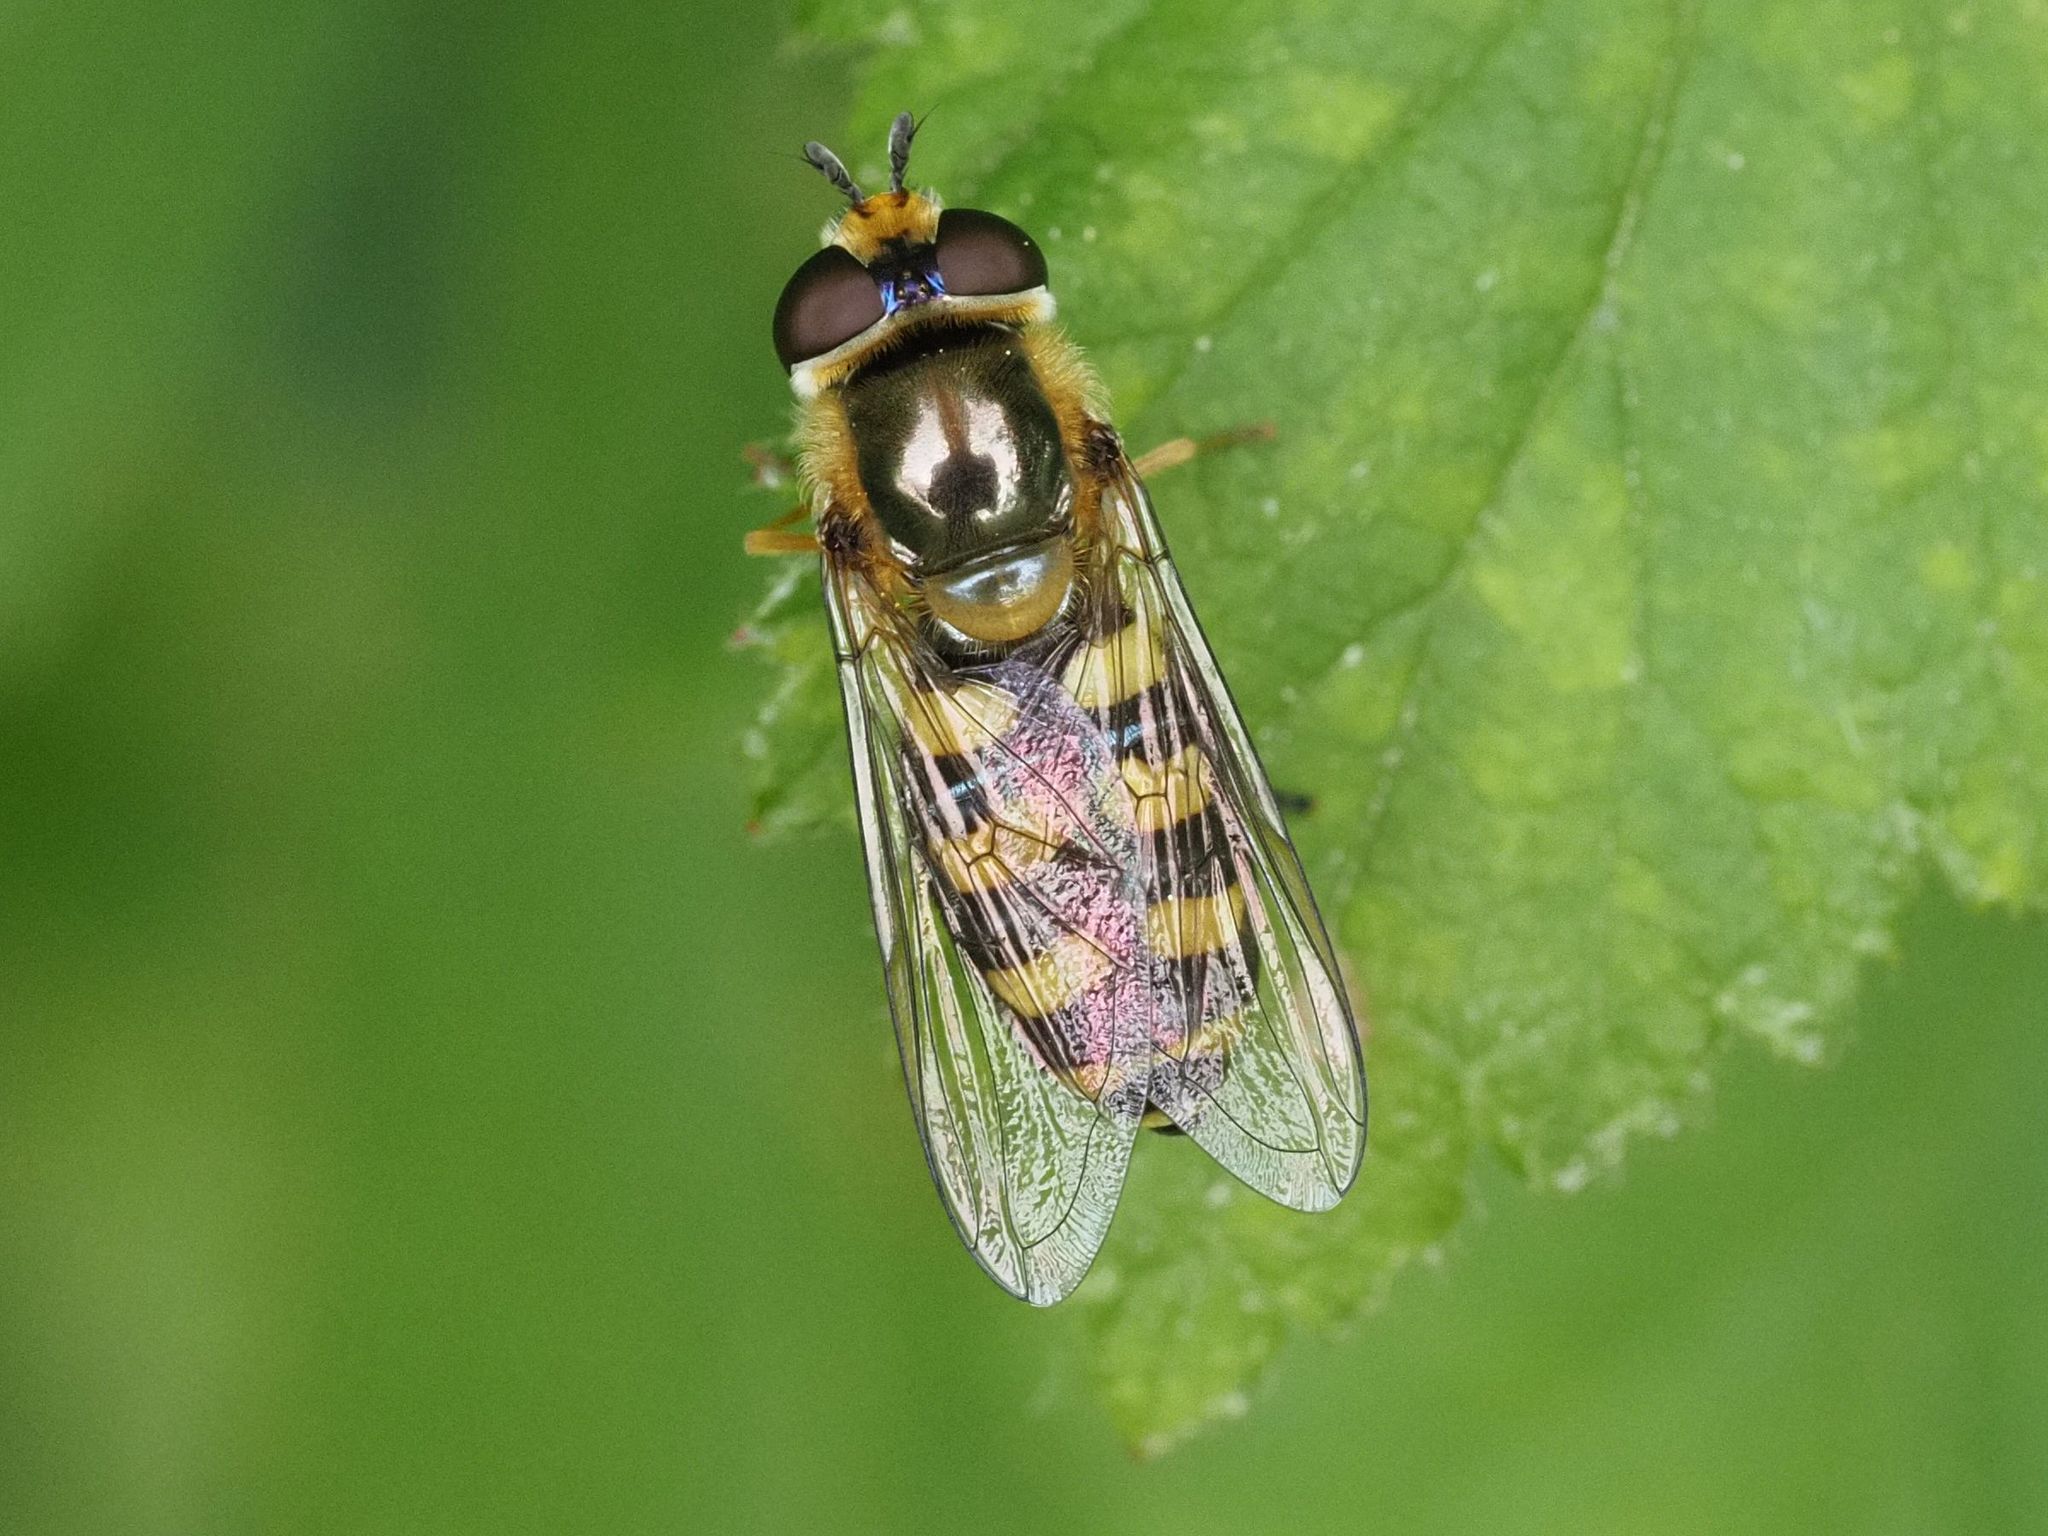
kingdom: Animalia
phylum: Arthropoda
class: Insecta
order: Diptera
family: Syrphidae
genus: Eupeodes
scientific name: Eupeodes luniger
